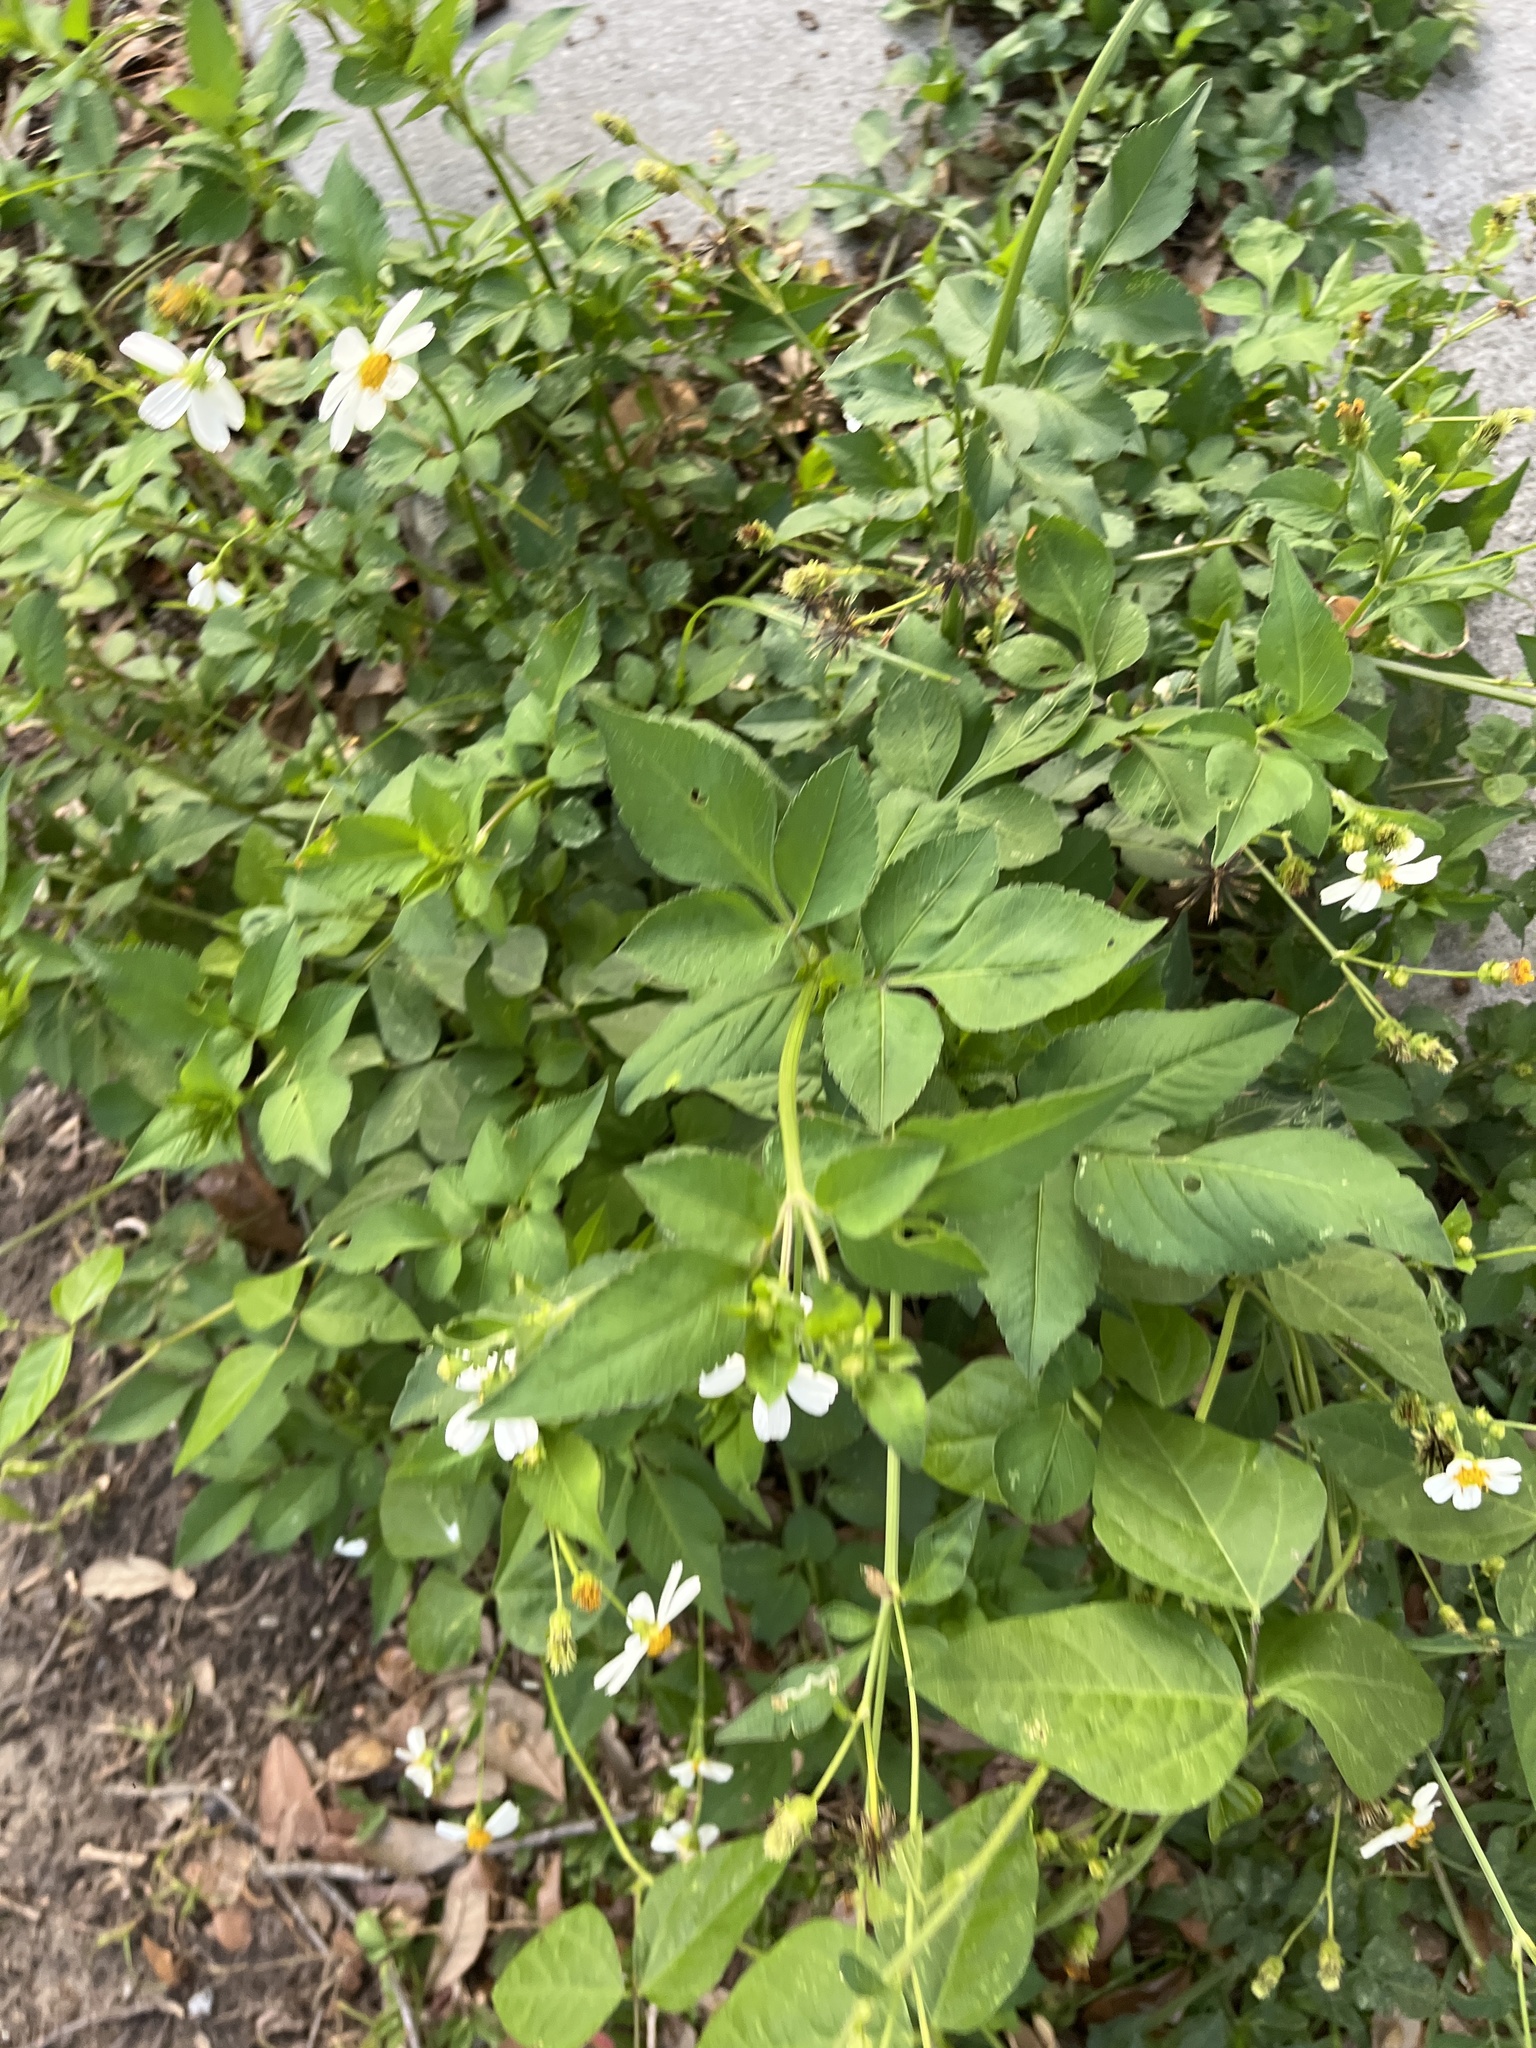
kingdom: Plantae
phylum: Tracheophyta
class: Magnoliopsida
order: Asterales
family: Asteraceae
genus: Bidens
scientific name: Bidens alba
